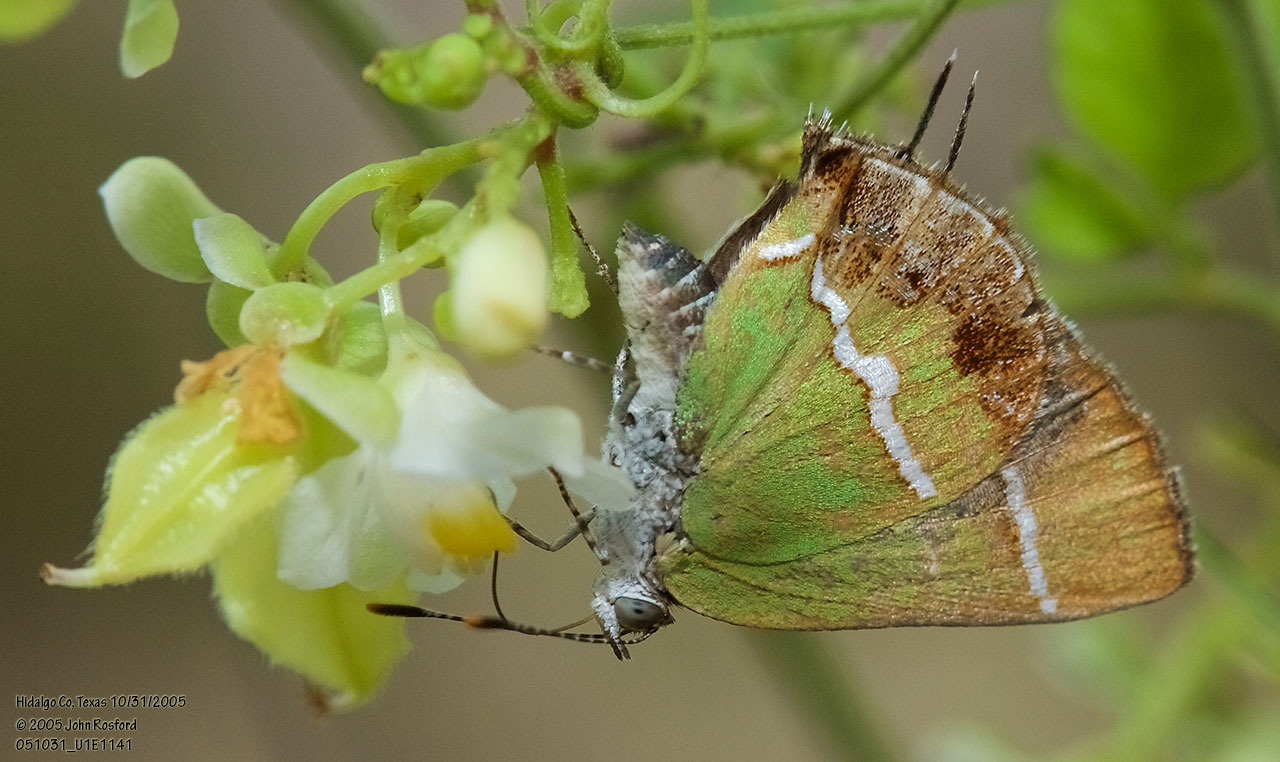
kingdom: Animalia
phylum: Arthropoda
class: Insecta
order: Lepidoptera
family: Lycaenidae
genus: Chlorostrymon
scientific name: Chlorostrymon simaethis
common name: Silver-banded hairstreak
